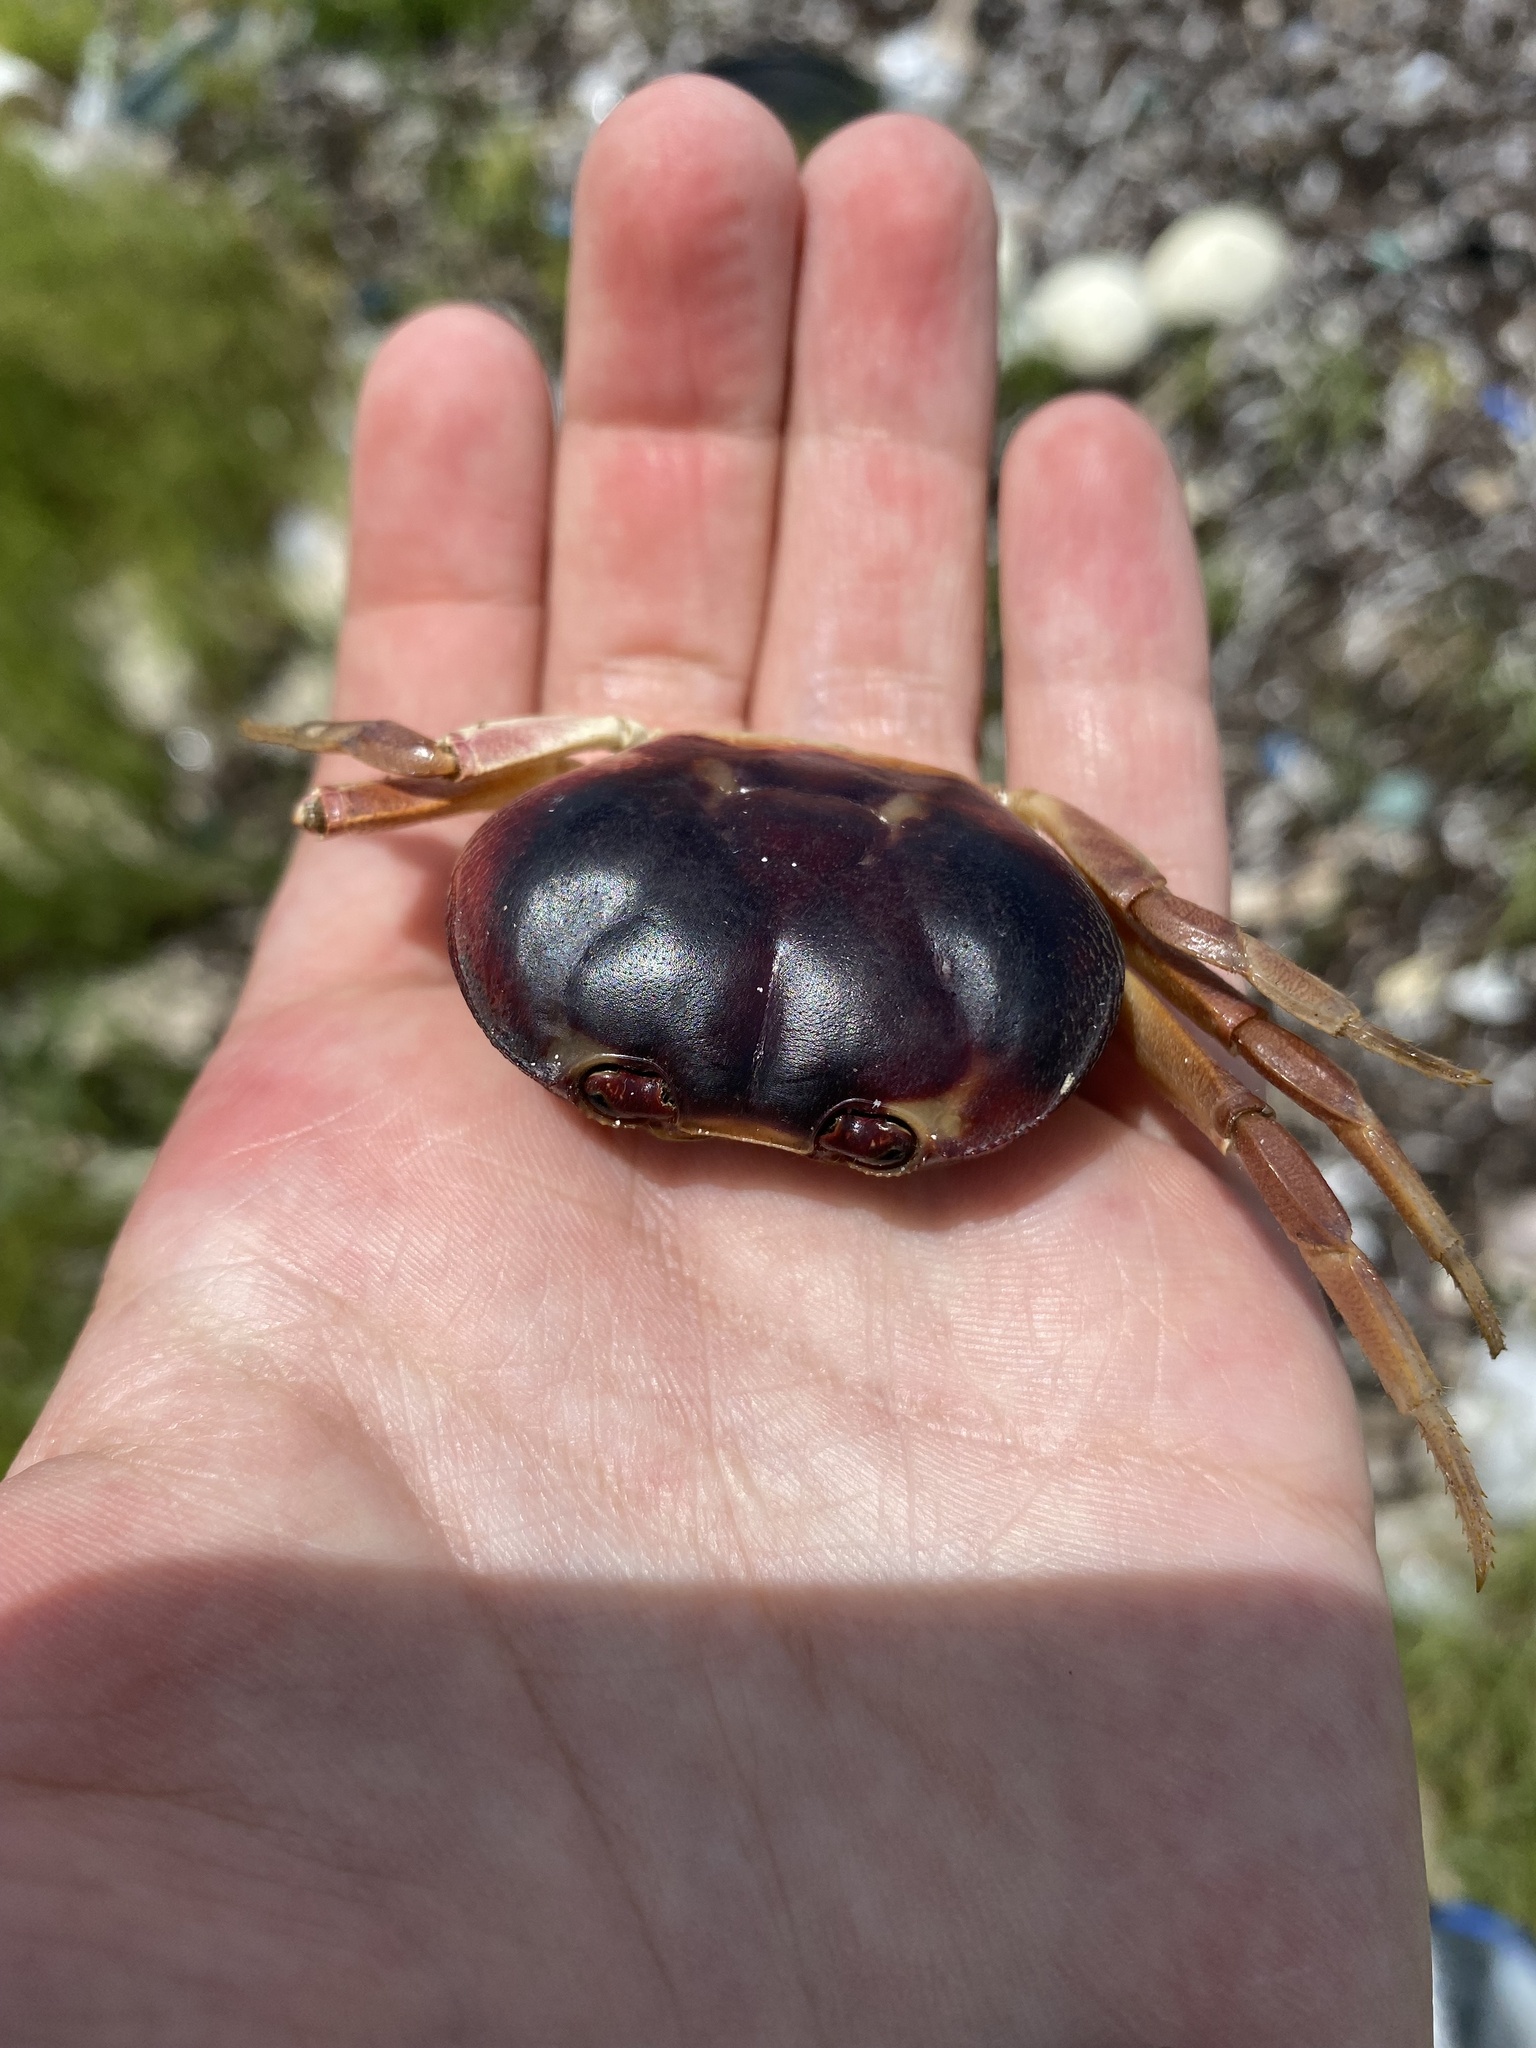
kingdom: Animalia
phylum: Arthropoda
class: Malacostraca
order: Decapoda
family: Gecarcinidae
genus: Gecarcinus
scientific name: Gecarcinus lateralis
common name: Bermuda land crab
